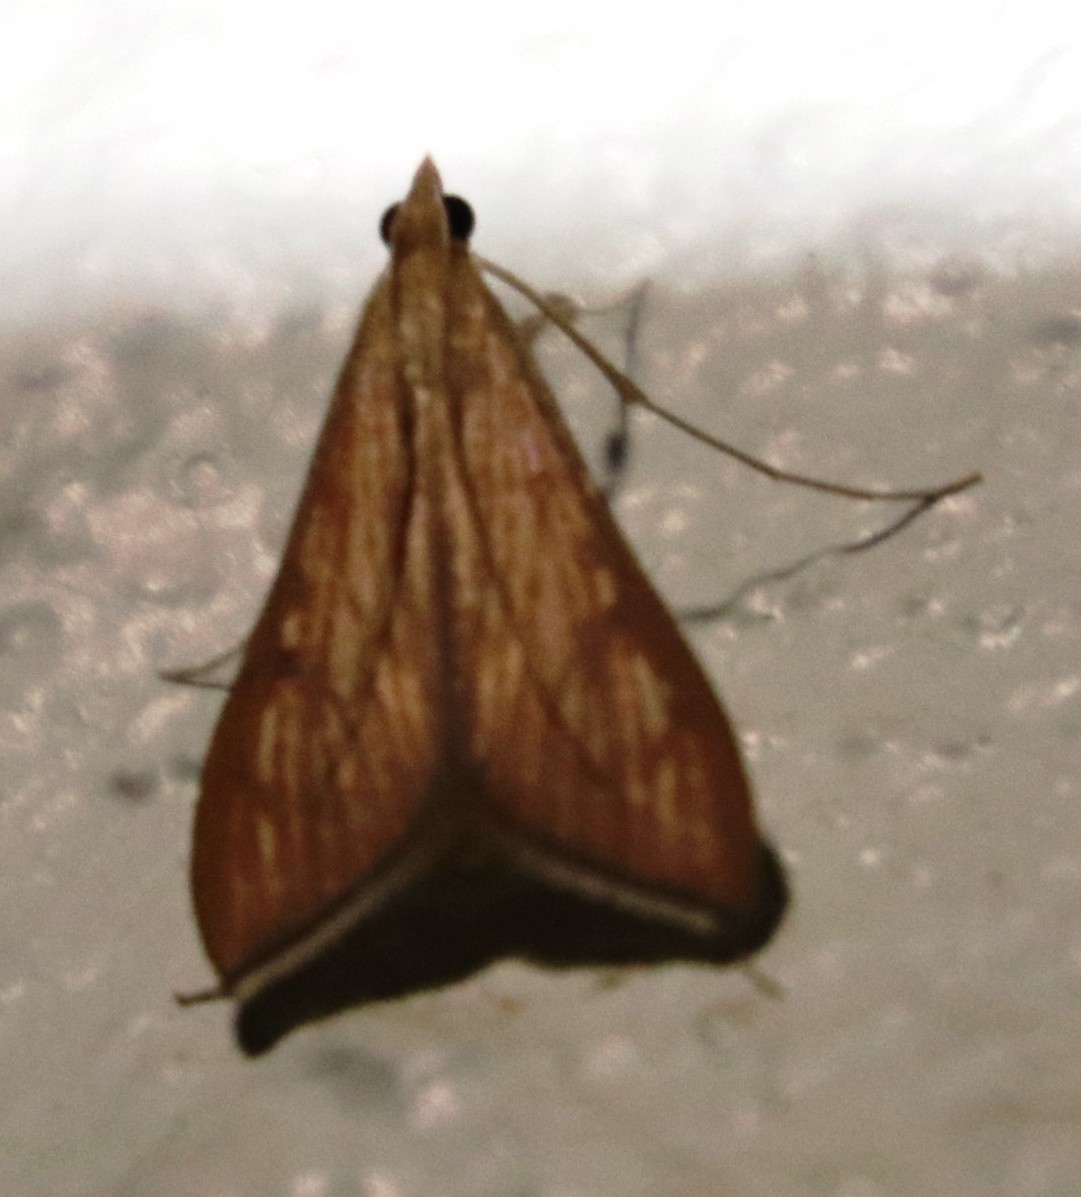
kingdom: Animalia
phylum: Arthropoda
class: Insecta
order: Lepidoptera
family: Crambidae
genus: Antigastra
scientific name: Antigastra catalaunalis
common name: Spanish dot
